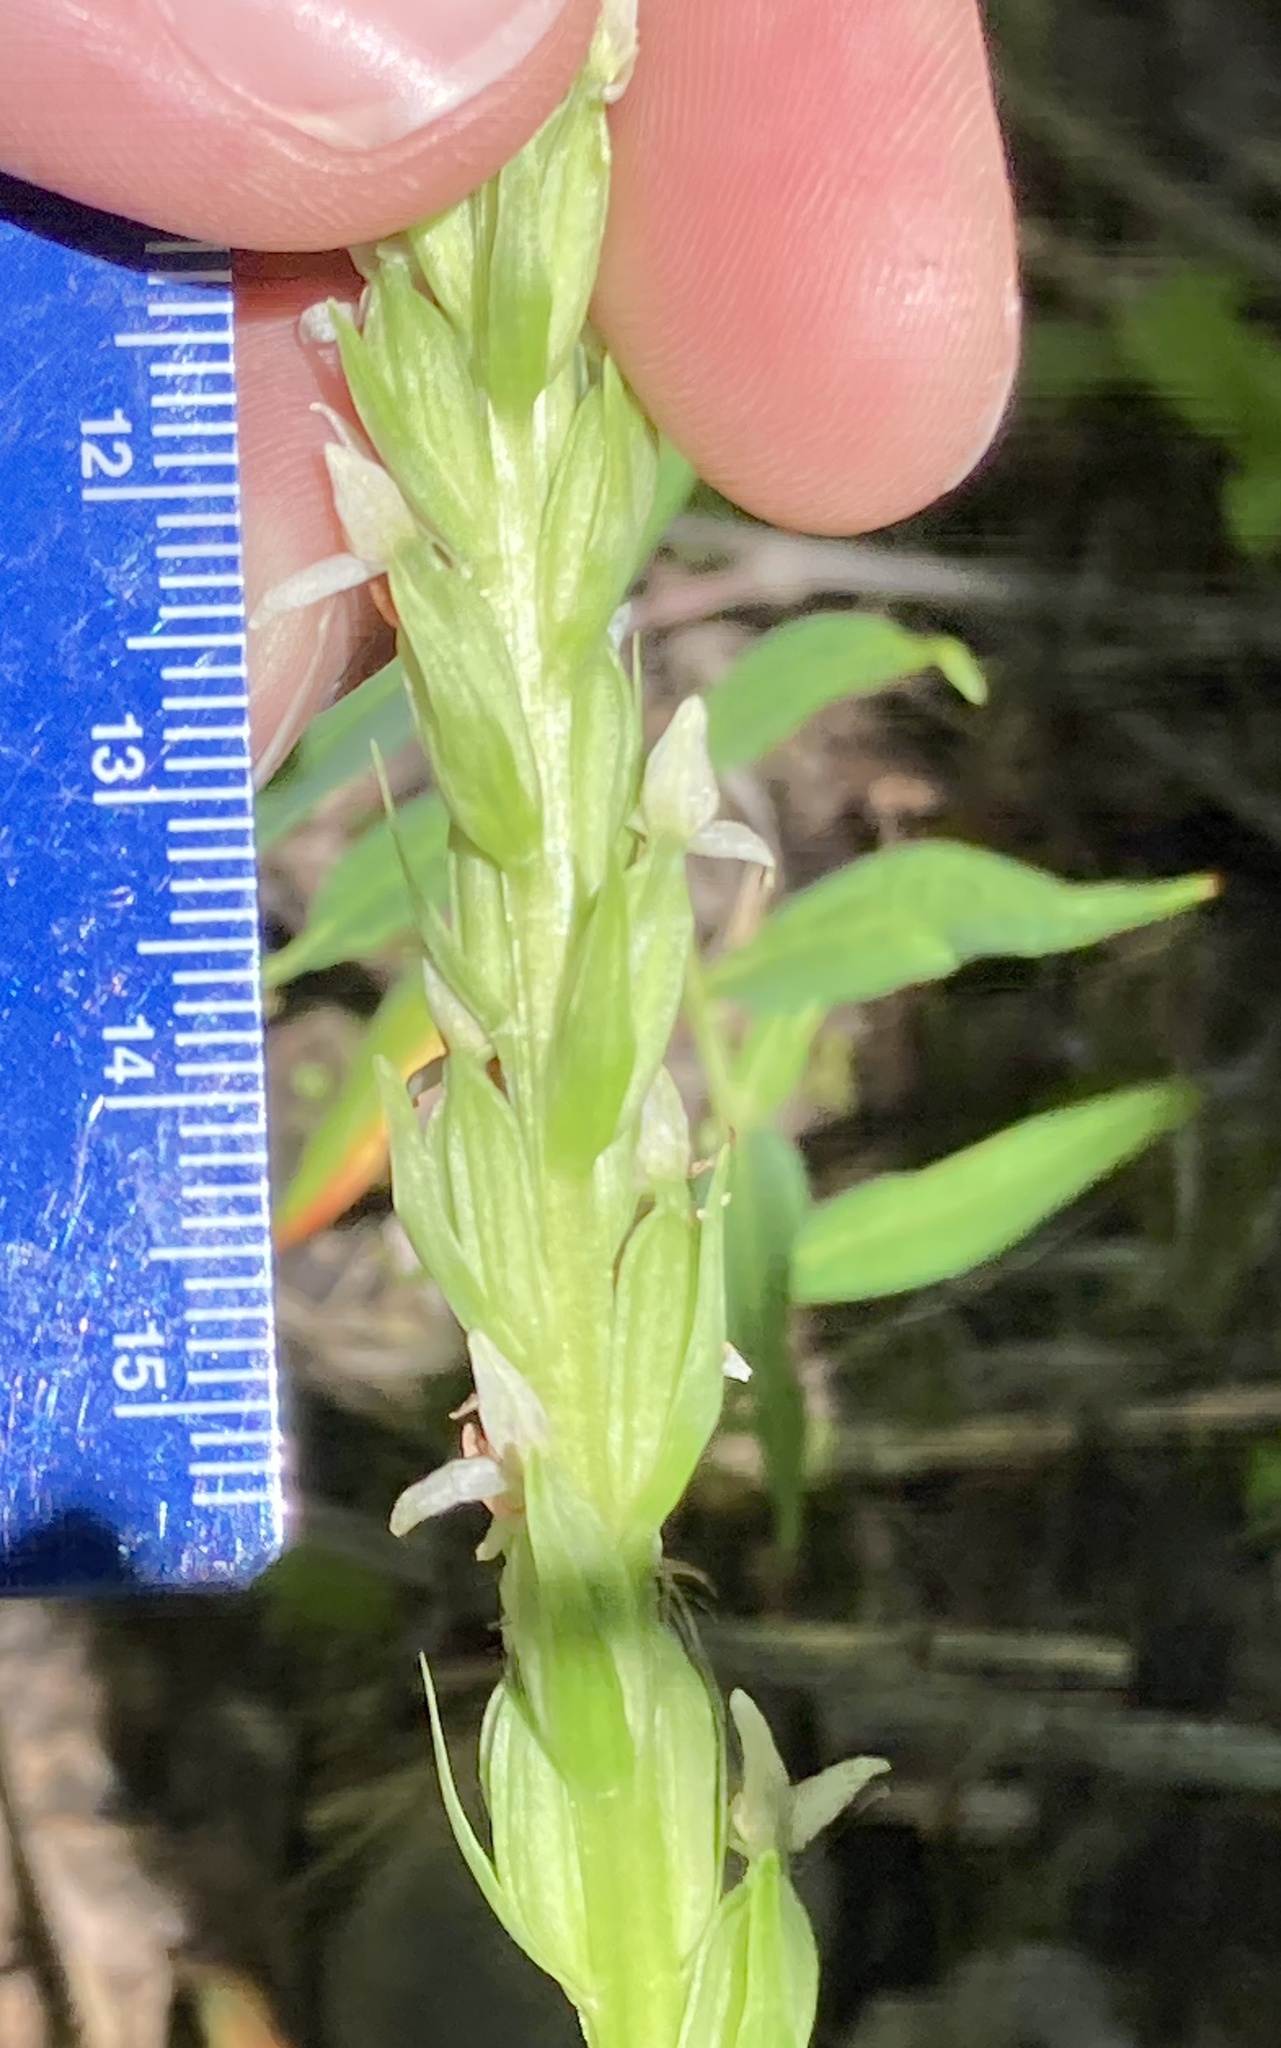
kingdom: Plantae
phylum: Tracheophyta
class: Liliopsida
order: Asparagales
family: Orchidaceae
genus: Platanthera
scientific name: Platanthera dilatata
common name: Bog candles
